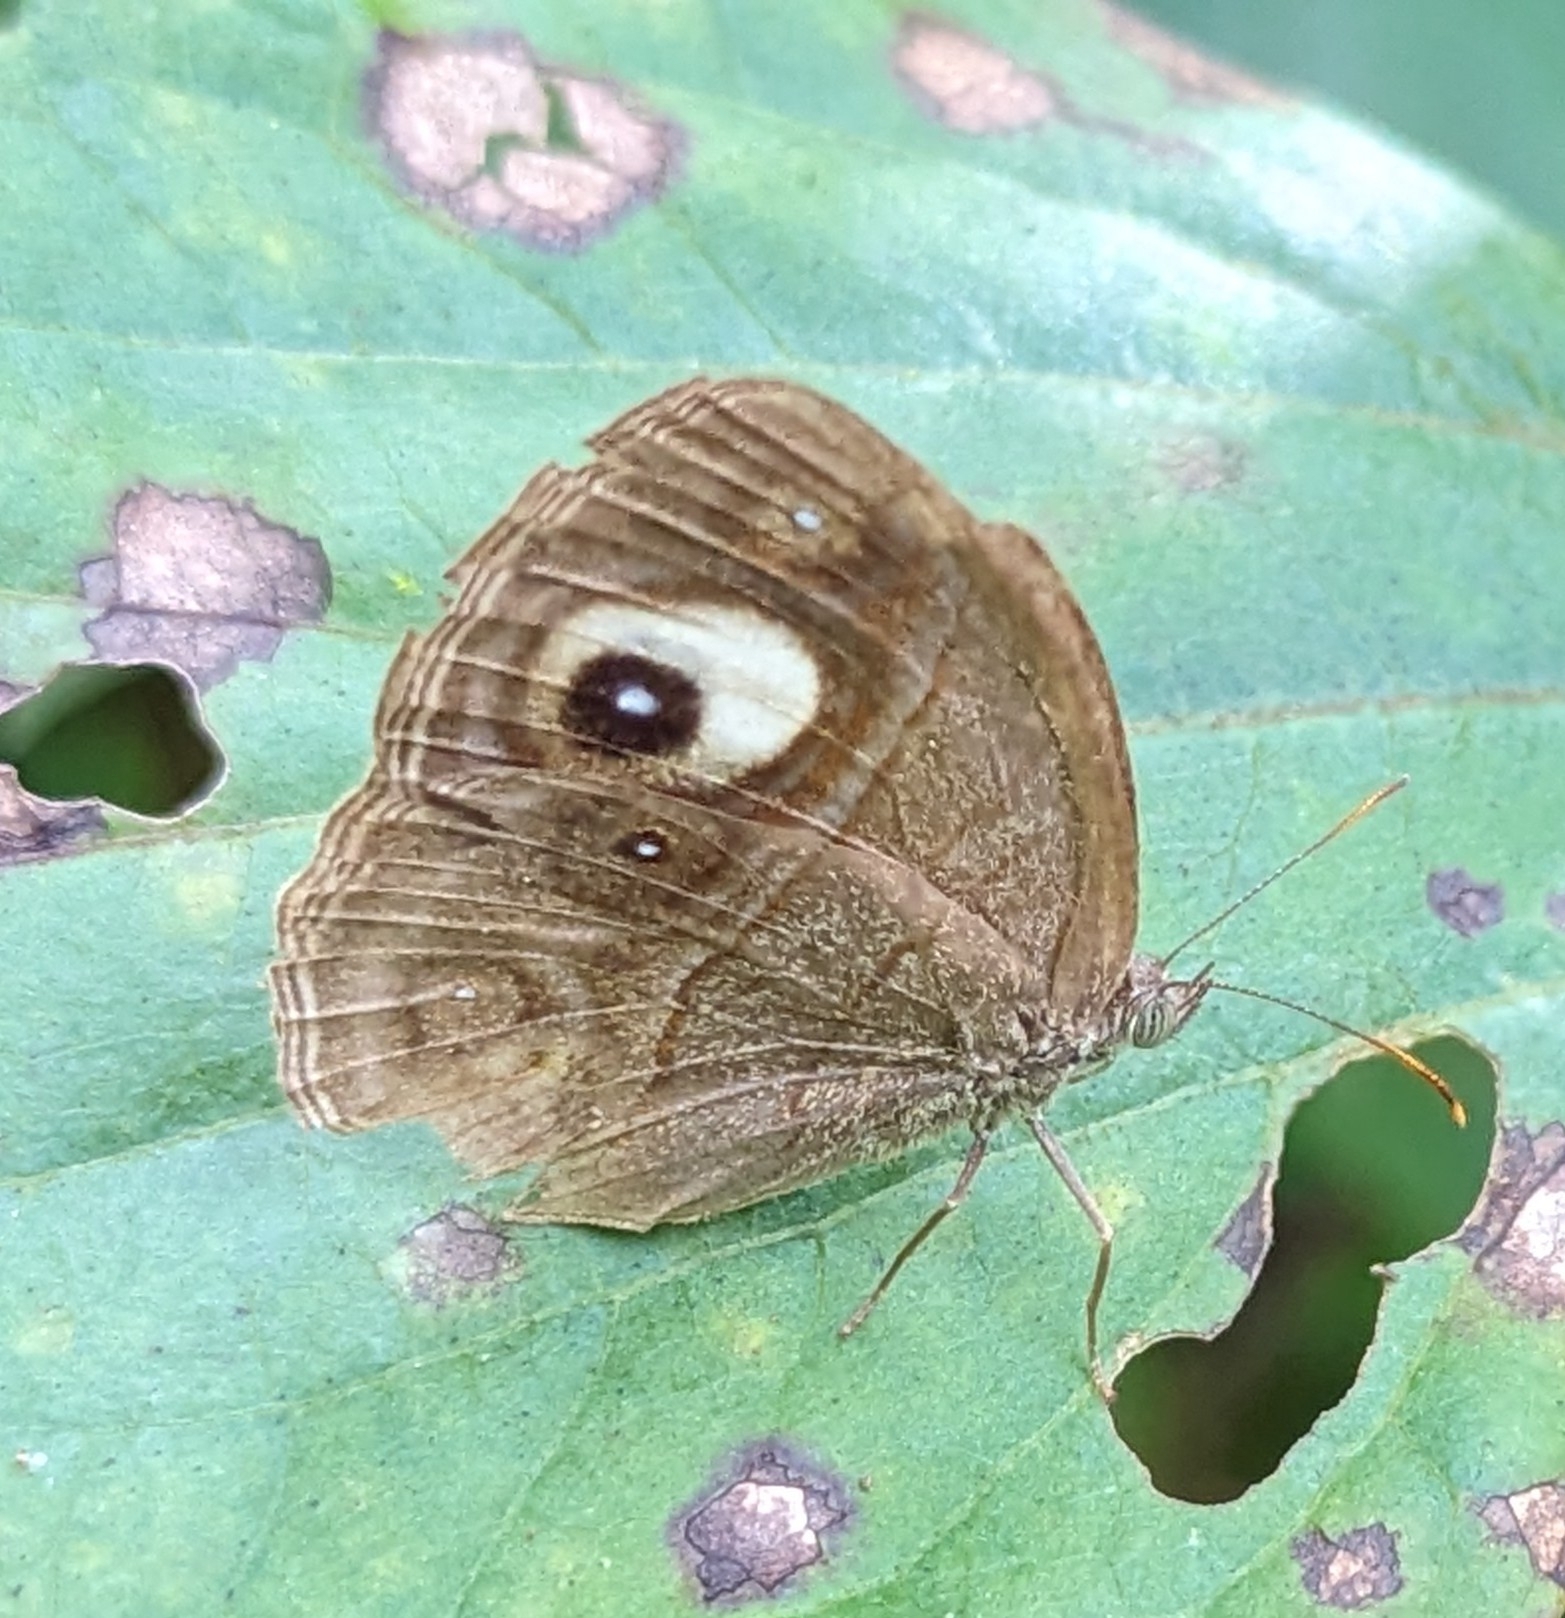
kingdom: Animalia
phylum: Arthropoda
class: Insecta
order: Lepidoptera
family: Nymphalidae
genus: Mycalesis
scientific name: Mycalesis patnia
